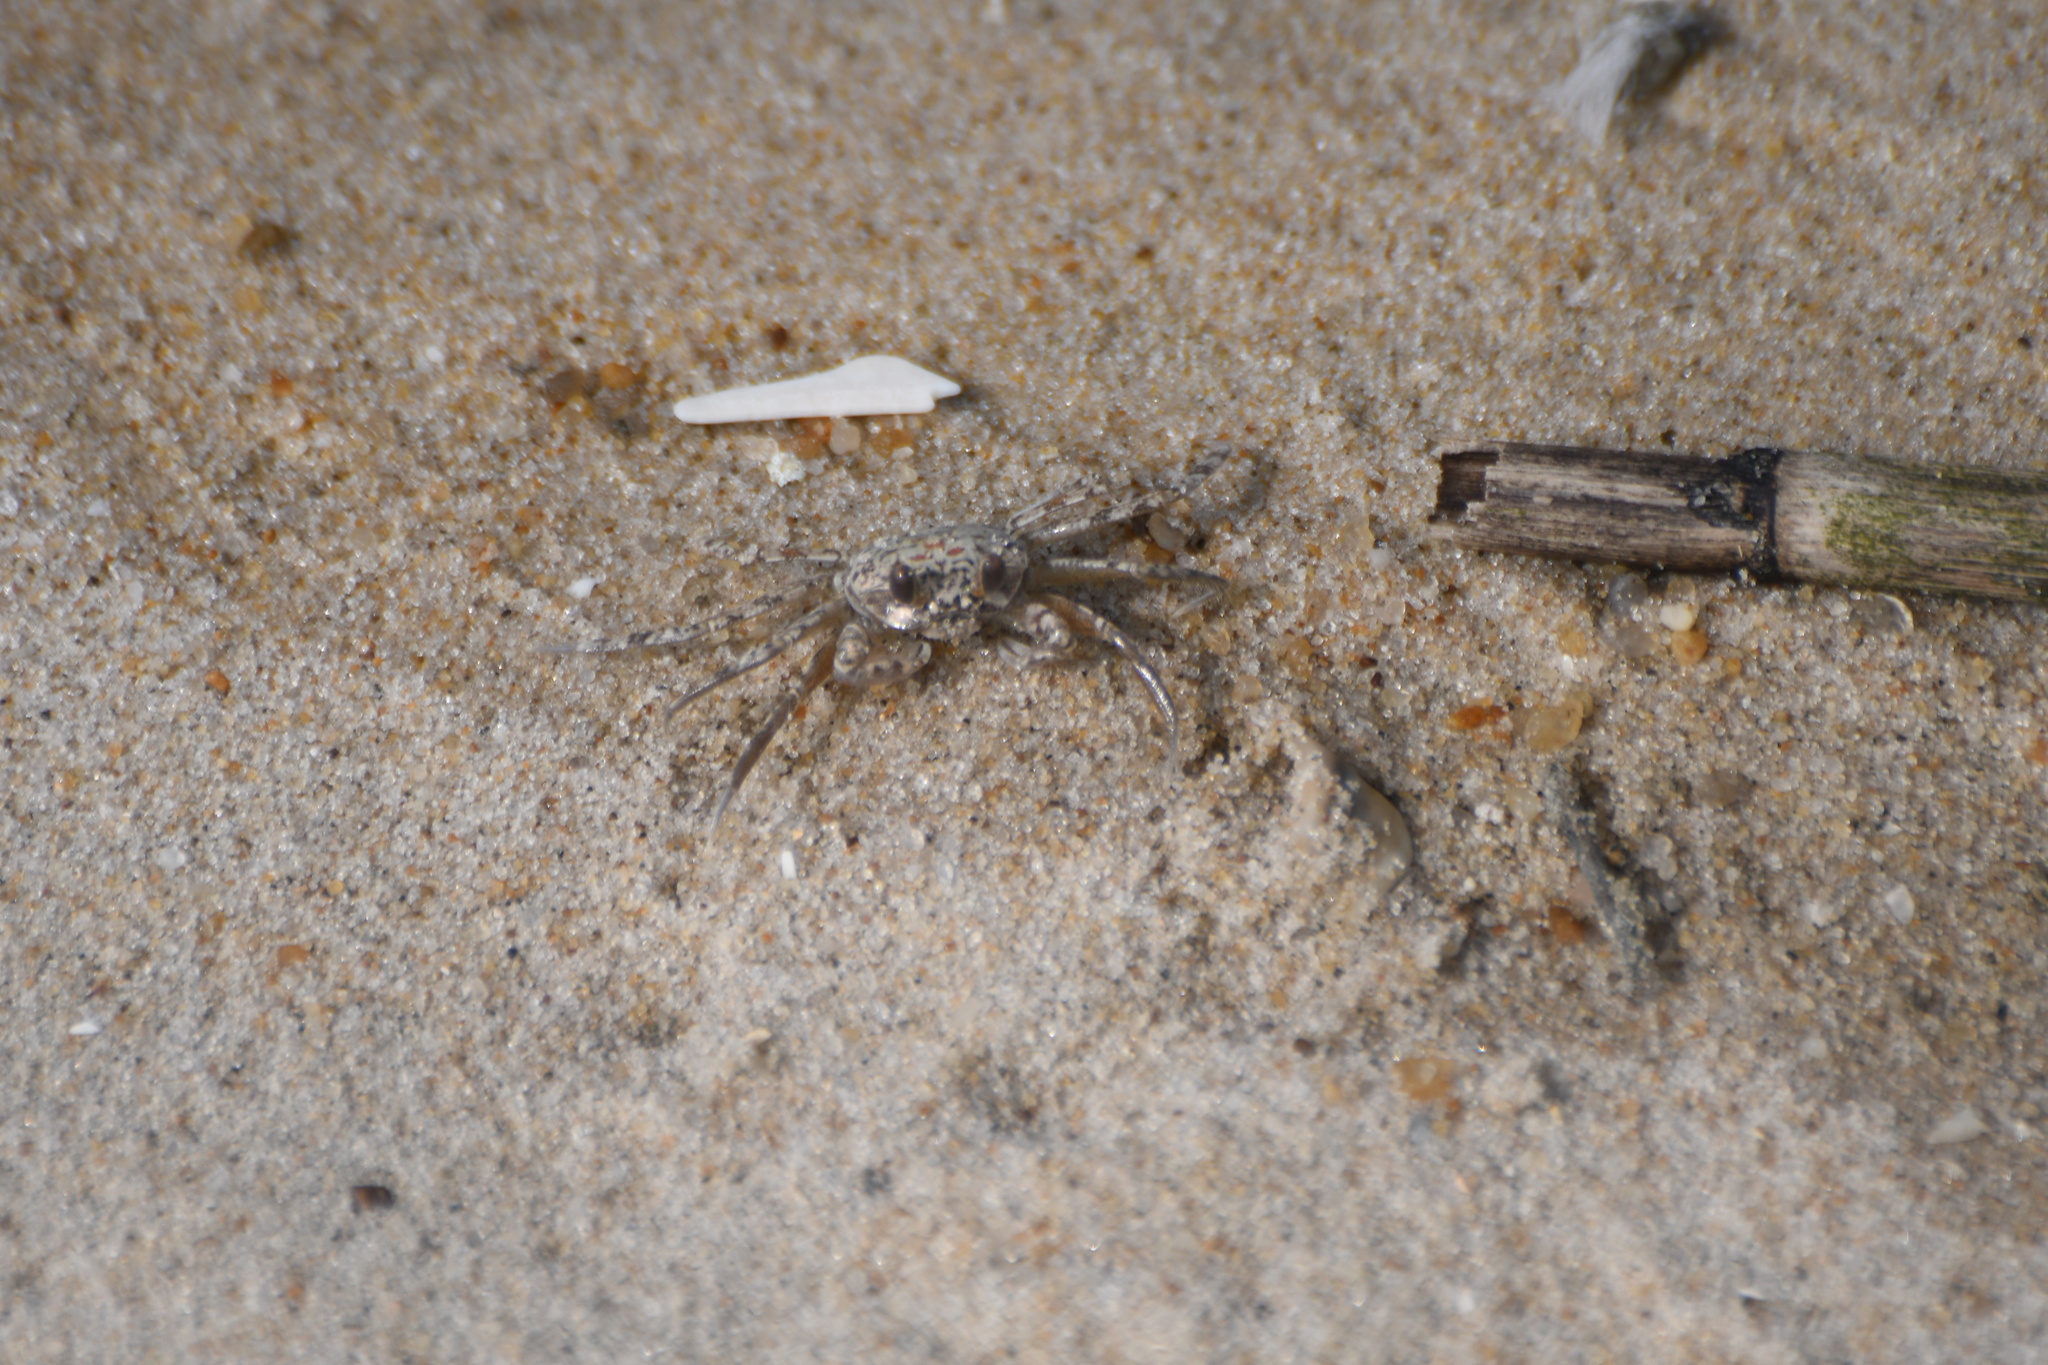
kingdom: Animalia
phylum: Arthropoda
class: Malacostraca
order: Decapoda
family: Ocypodidae
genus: Ocypode
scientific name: Ocypode quadrata
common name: Ghost crab
